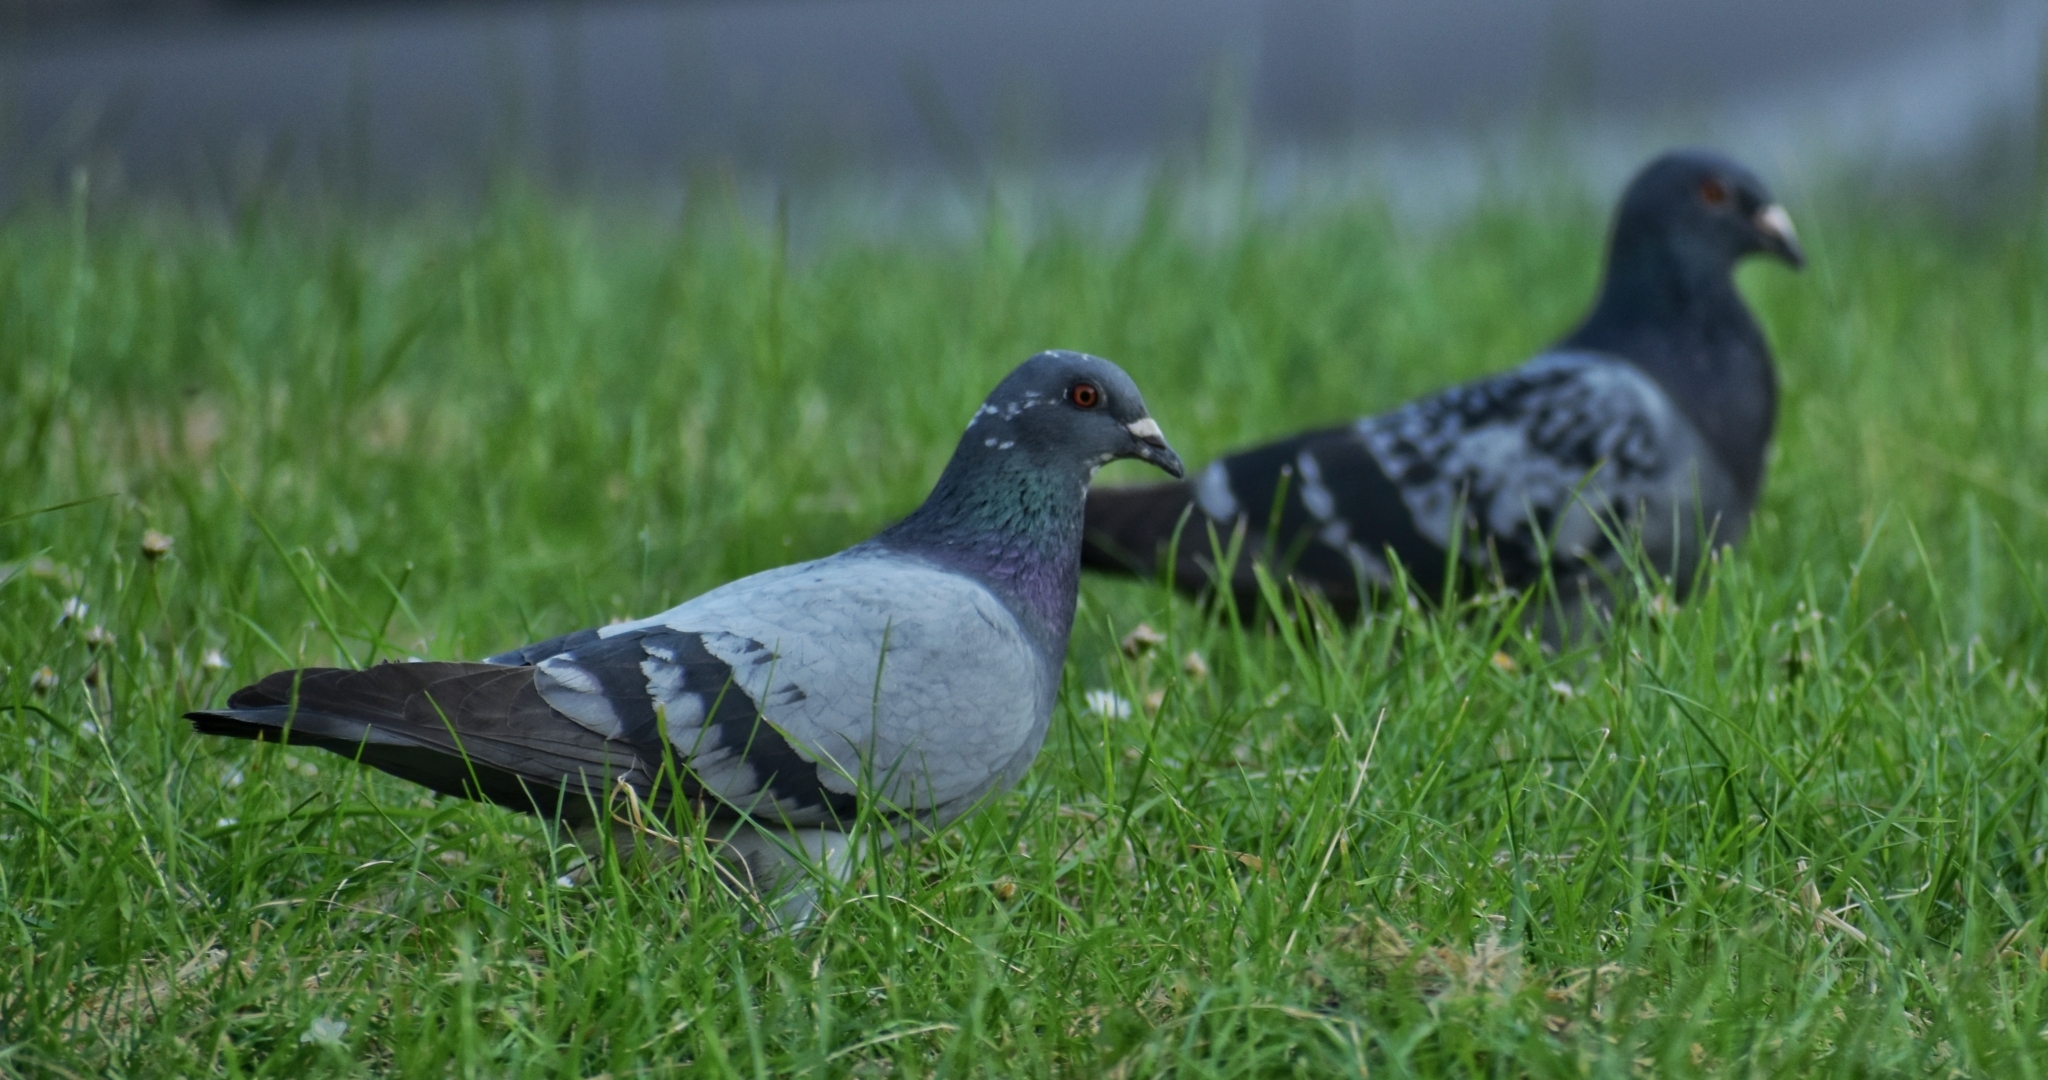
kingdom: Animalia
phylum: Chordata
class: Aves
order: Columbiformes
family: Columbidae
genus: Columba
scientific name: Columba livia
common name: Rock pigeon
